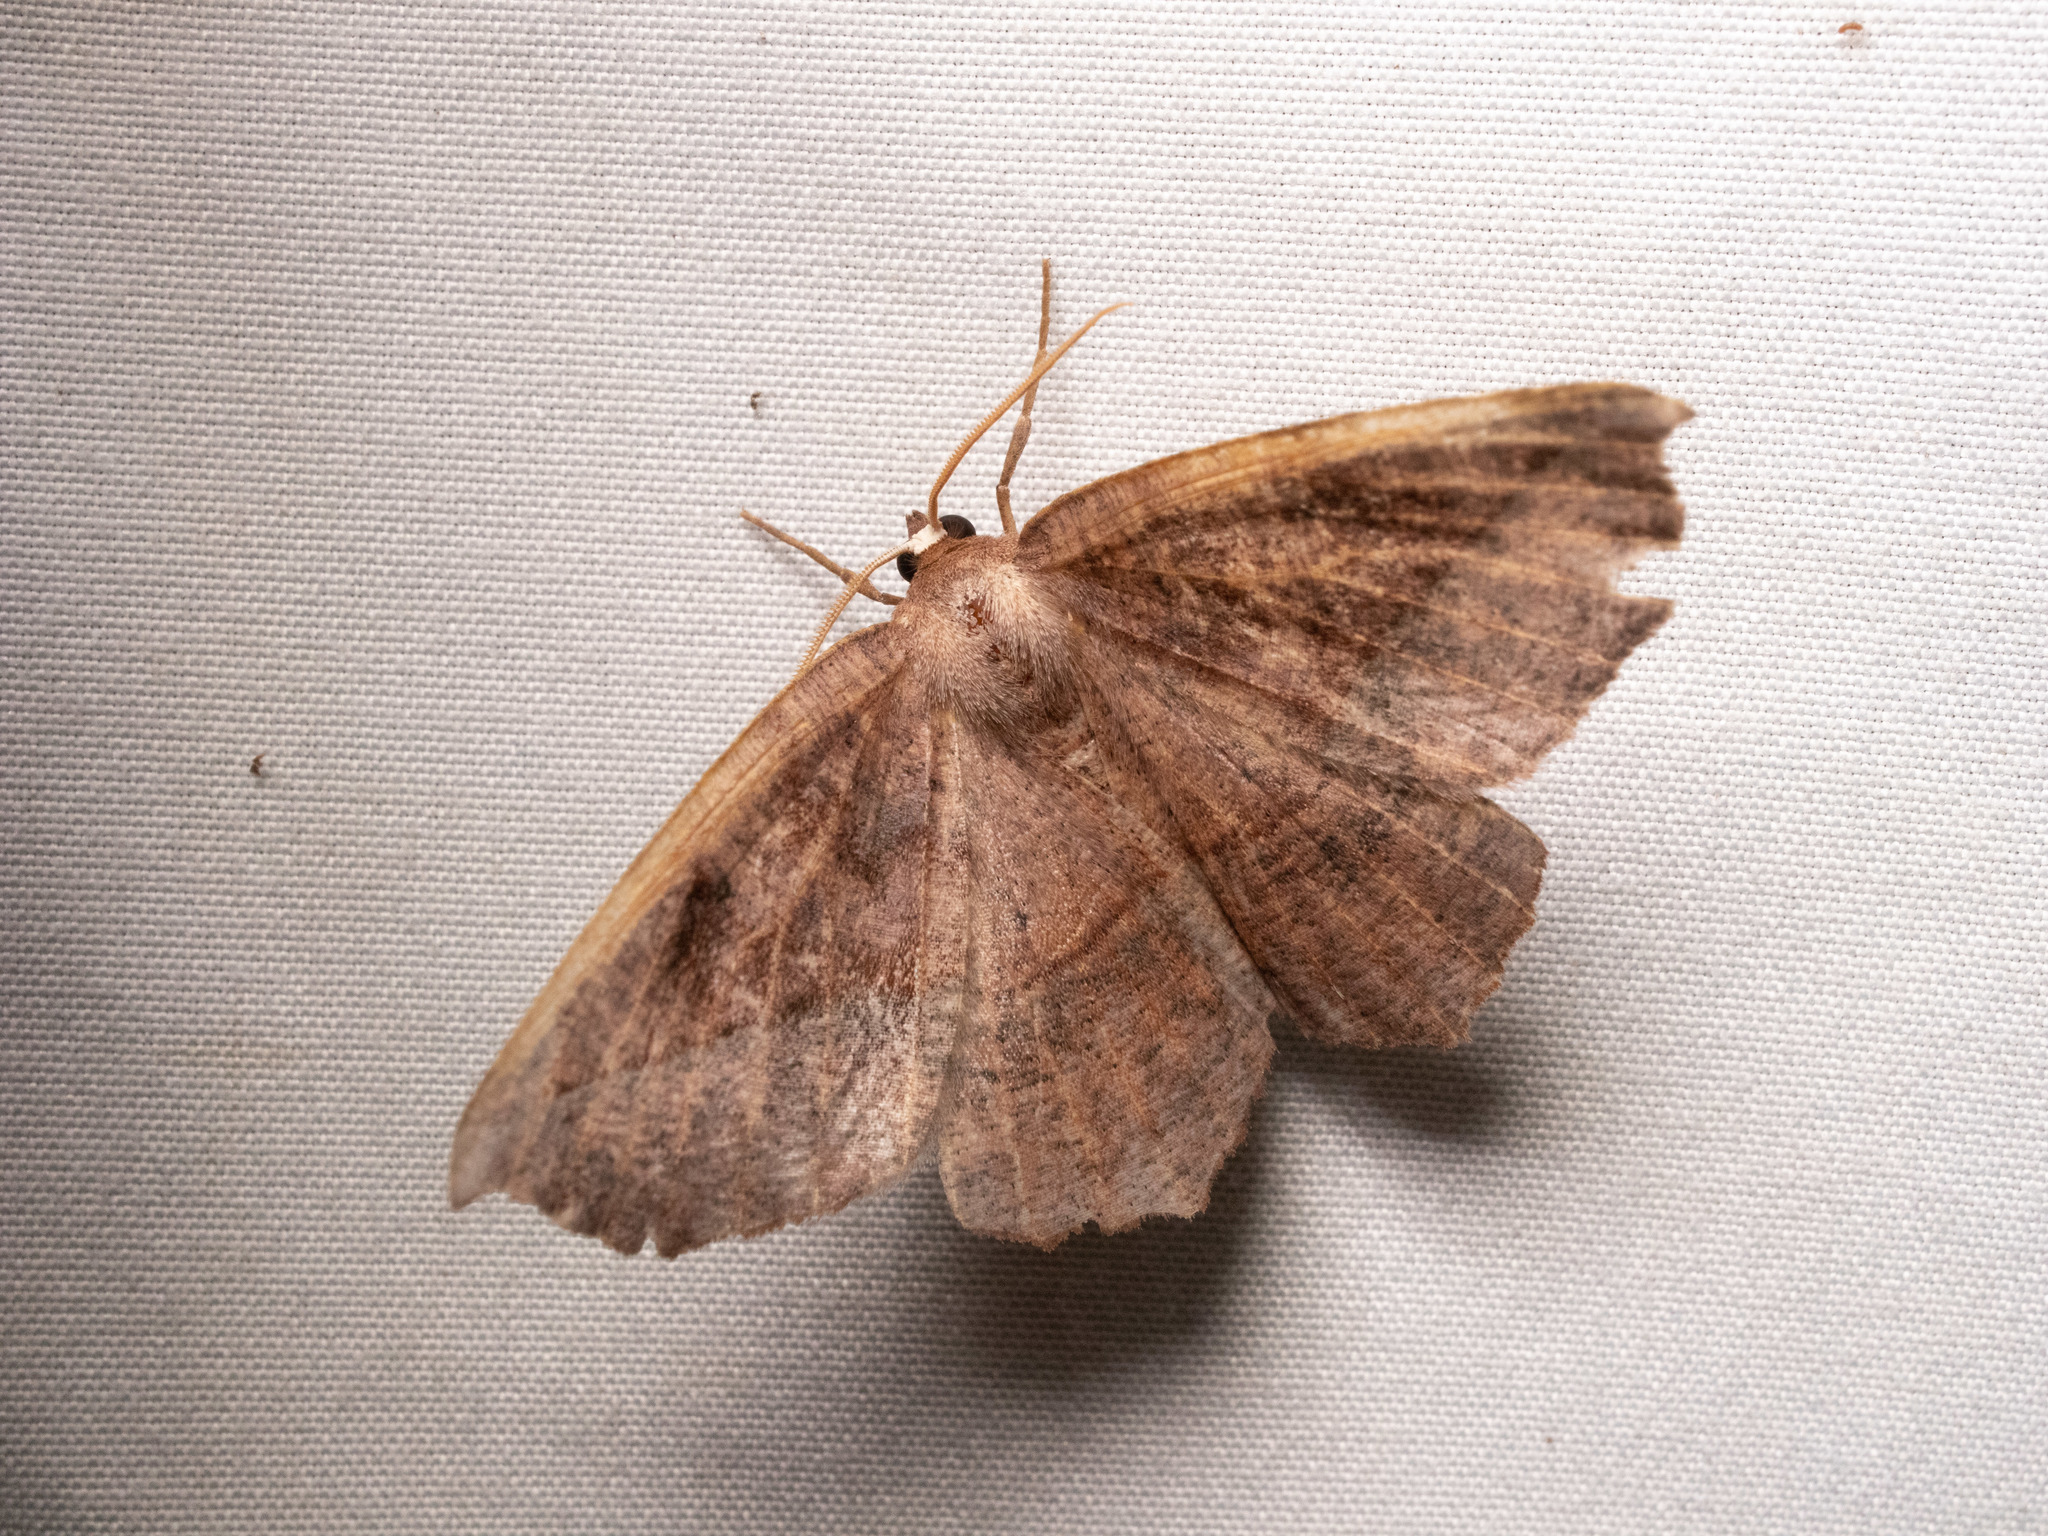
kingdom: Animalia
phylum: Arthropoda
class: Insecta
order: Lepidoptera
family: Geometridae
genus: Eutrapela
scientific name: Eutrapela clemataria
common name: Curved-toothed geometer
